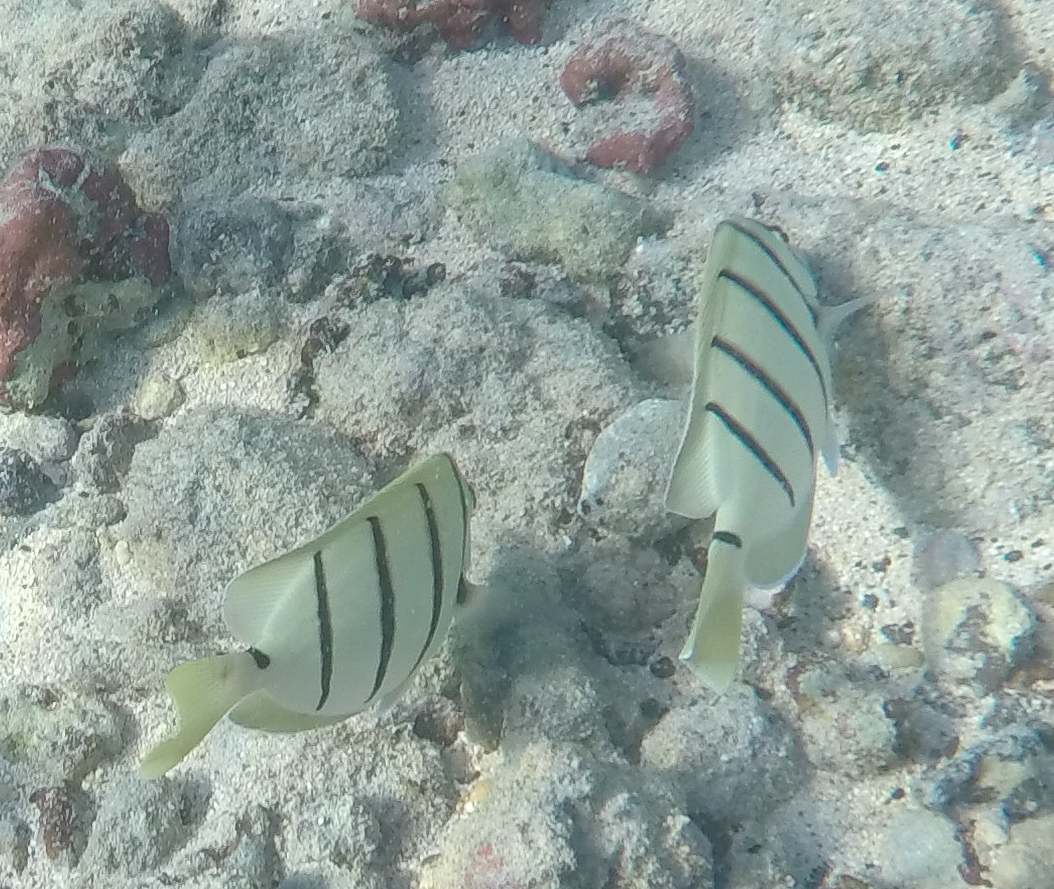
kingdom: Animalia
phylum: Chordata
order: Perciformes
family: Acanthuridae
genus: Acanthurus
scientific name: Acanthurus triostegus
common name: Convict surgeonfish
